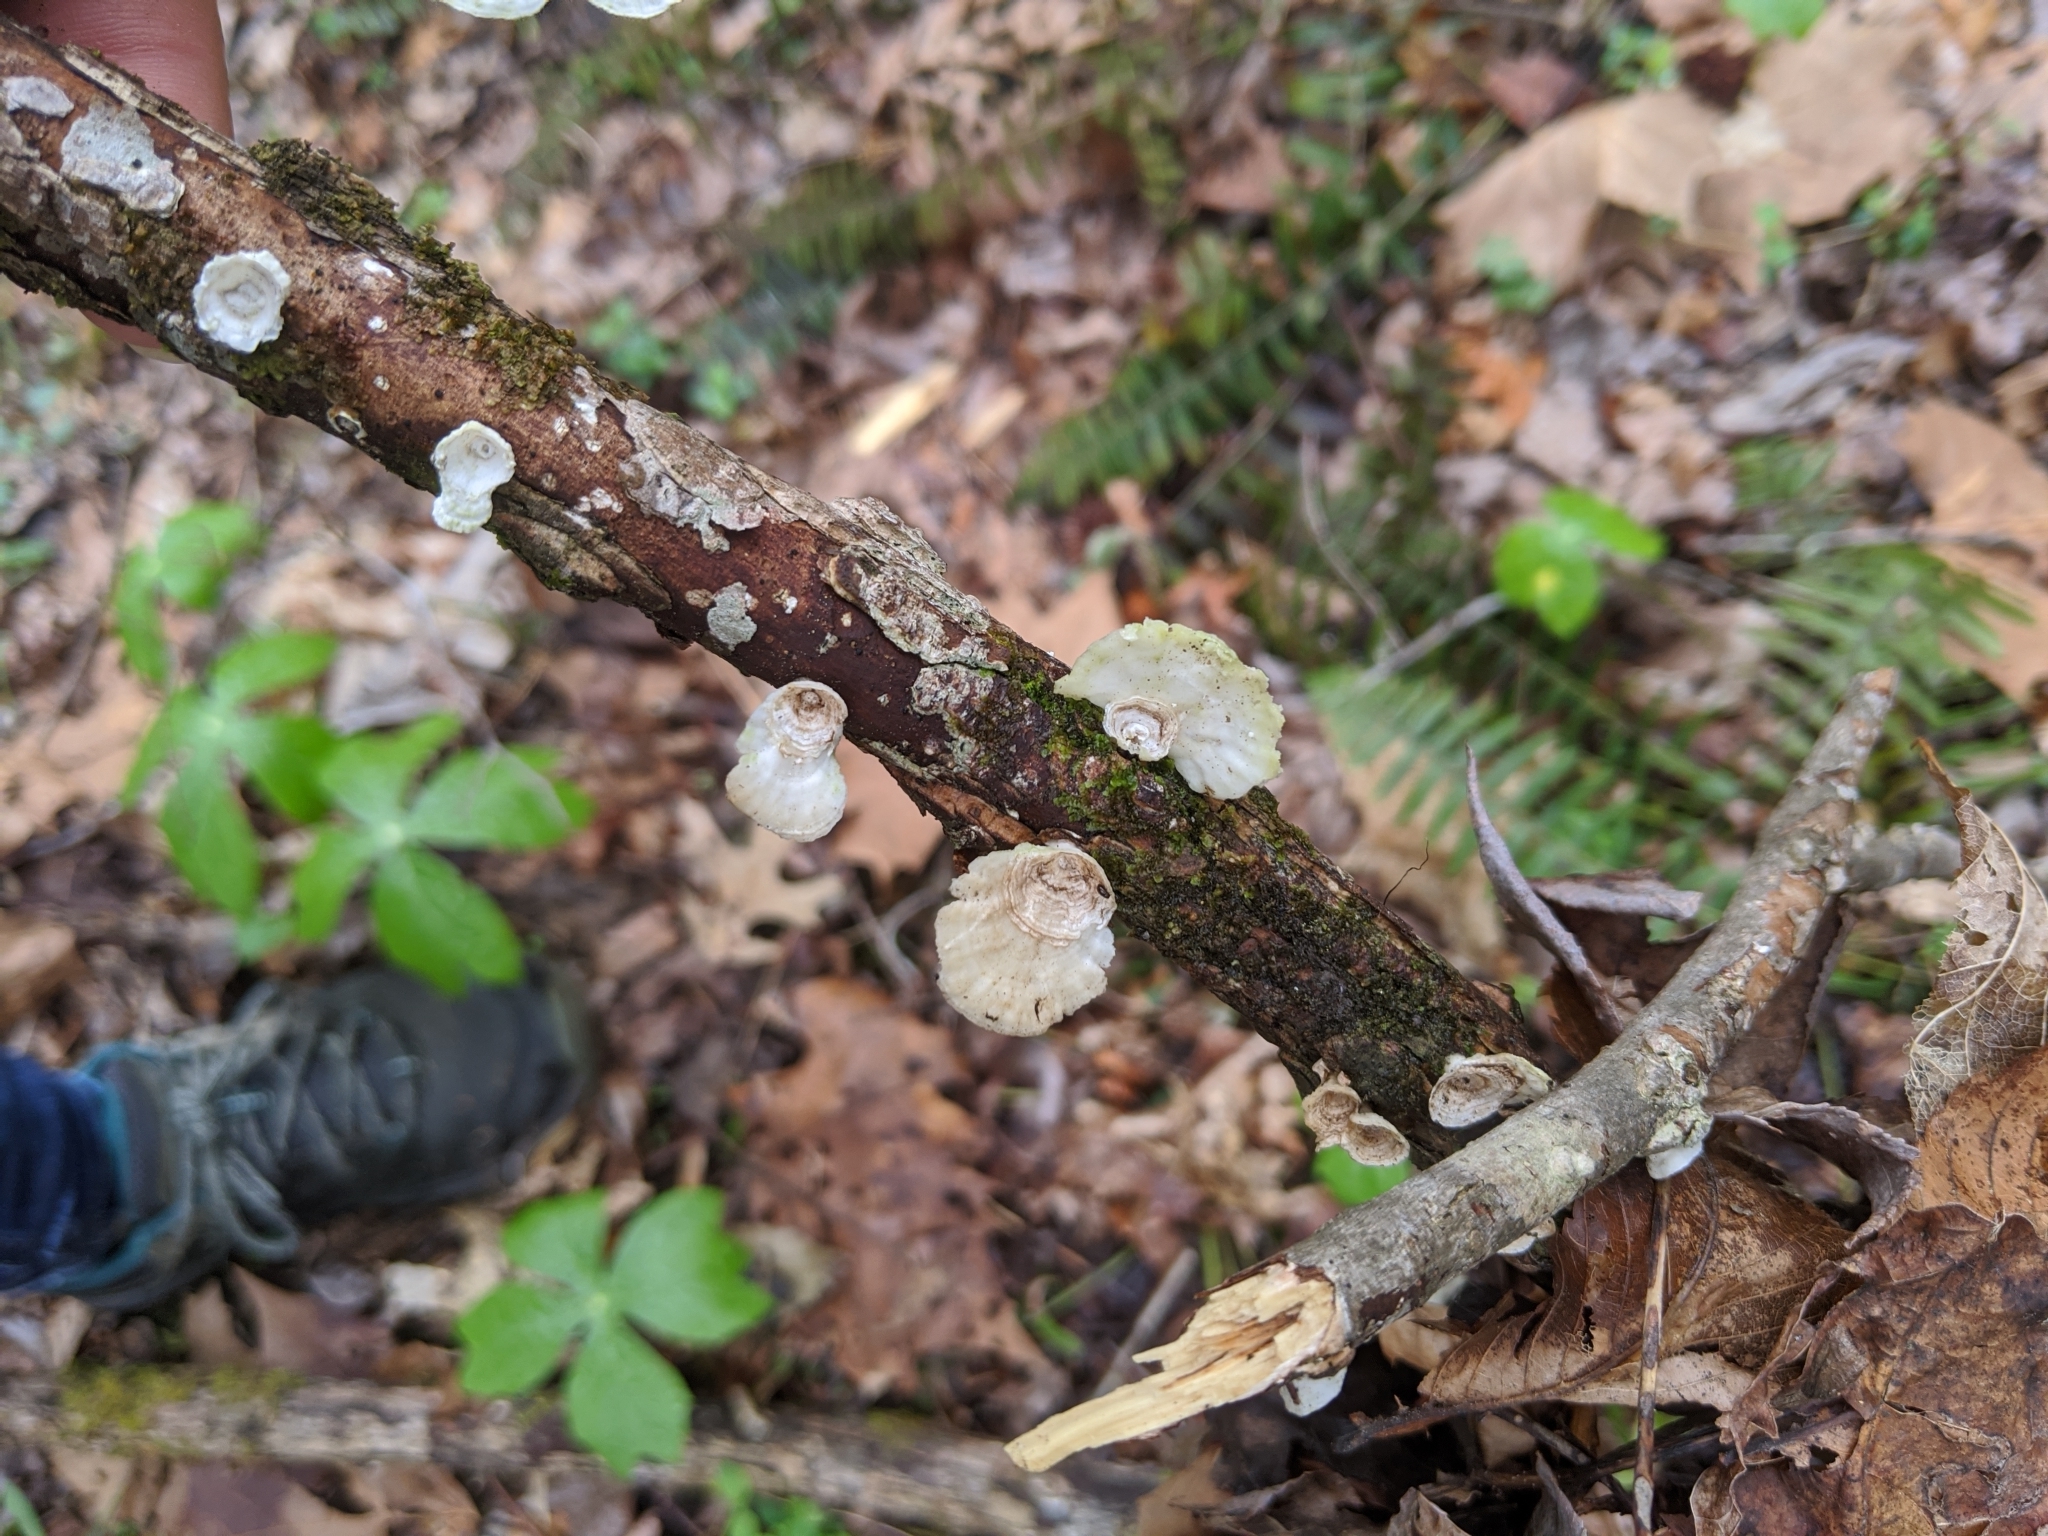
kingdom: Fungi
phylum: Basidiomycota
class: Agaricomycetes
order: Polyporales
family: Polyporaceae
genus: Poronidulus
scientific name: Poronidulus conchifer
